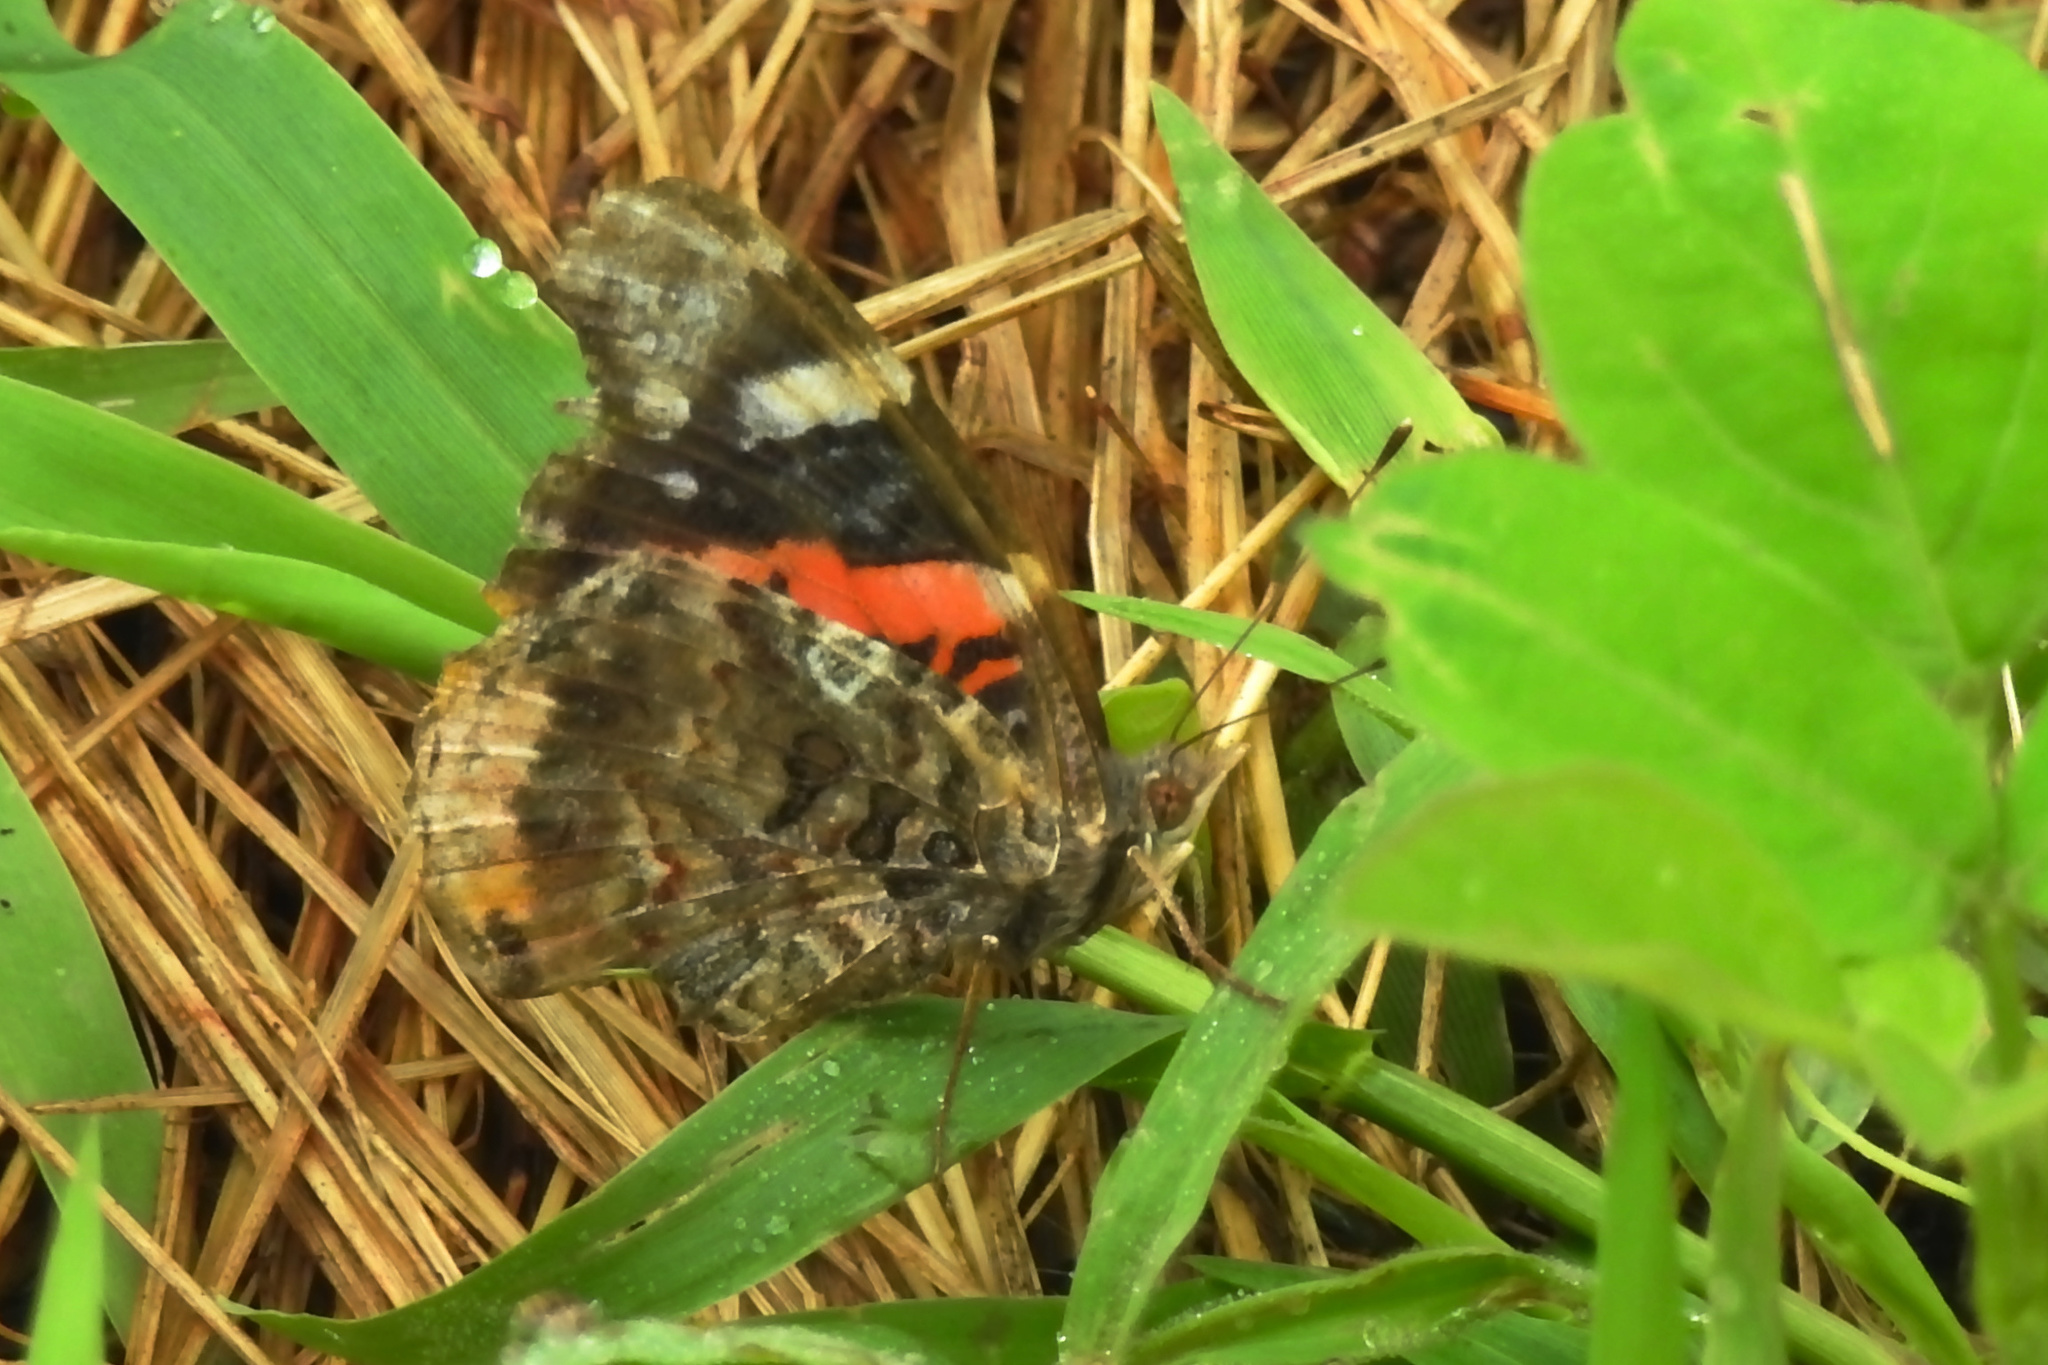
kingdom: Animalia
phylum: Arthropoda
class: Insecta
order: Lepidoptera
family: Nymphalidae
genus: Vanessa
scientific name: Vanessa atalanta
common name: Red admiral
